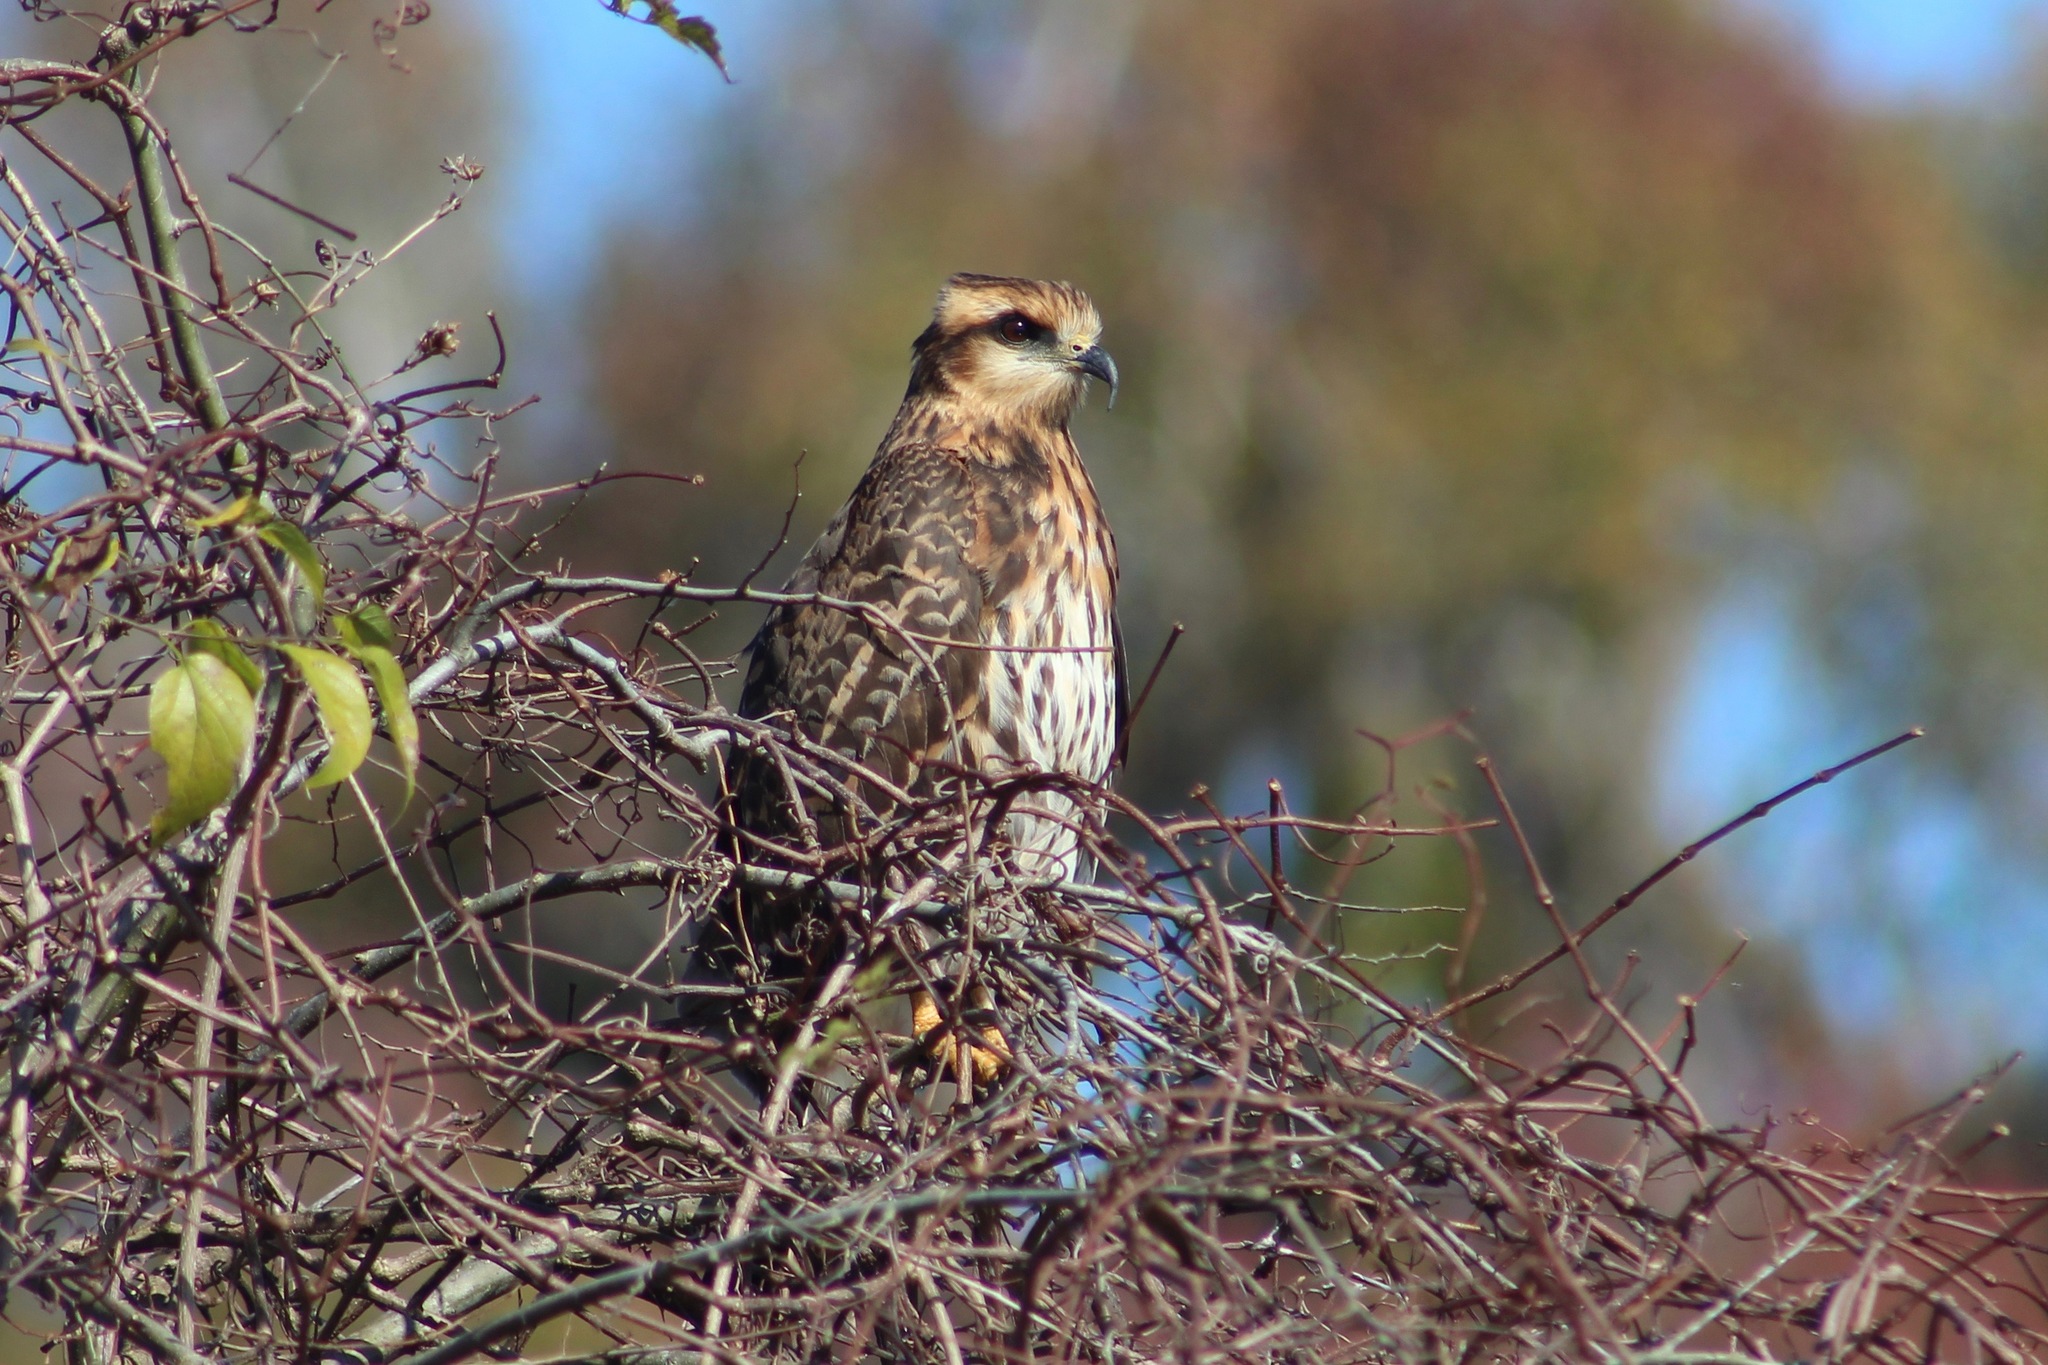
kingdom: Animalia
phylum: Chordata
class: Aves
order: Accipitriformes
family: Accipitridae
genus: Rostrhamus
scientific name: Rostrhamus sociabilis
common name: Snail kite
